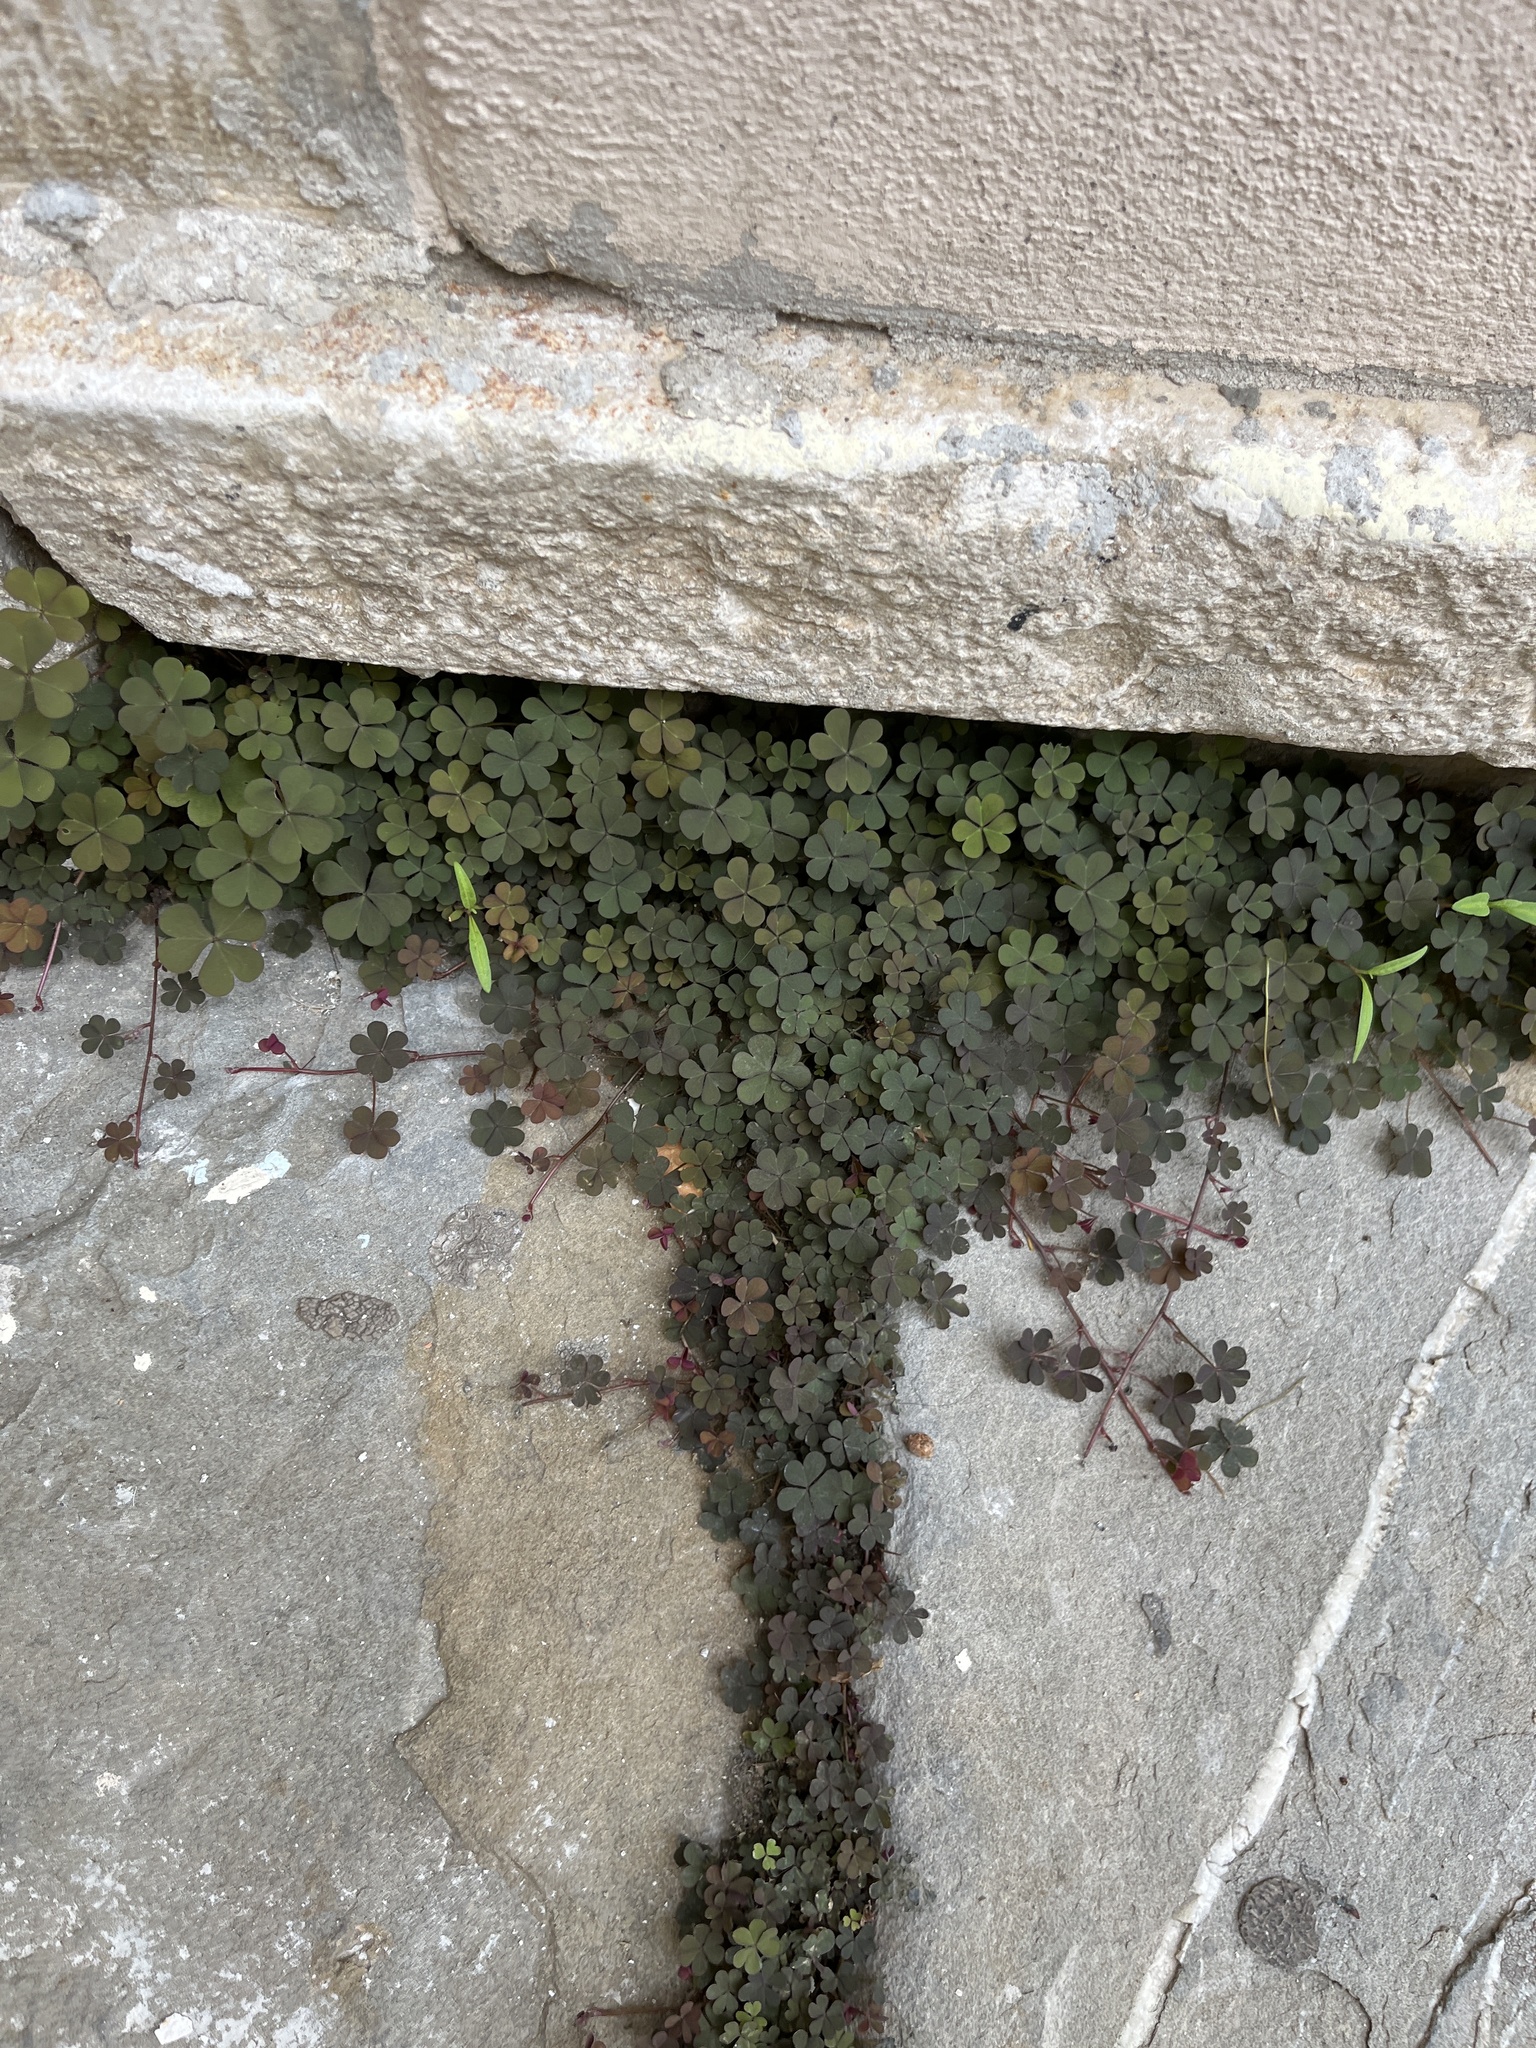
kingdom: Plantae
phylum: Tracheophyta
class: Magnoliopsida
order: Oxalidales
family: Oxalidaceae
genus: Oxalis
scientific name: Oxalis corniculata
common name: Procumbent yellow-sorrel
